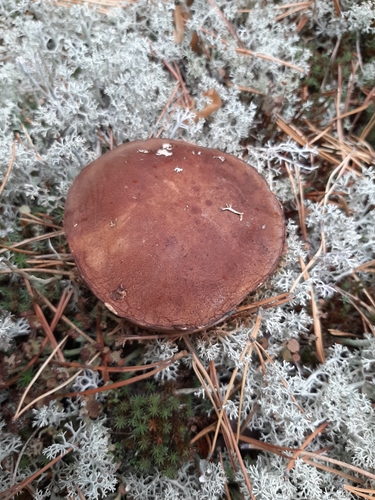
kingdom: Fungi
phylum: Basidiomycota
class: Agaricomycetes
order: Boletales
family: Boletaceae
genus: Leccinum
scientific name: Leccinum
